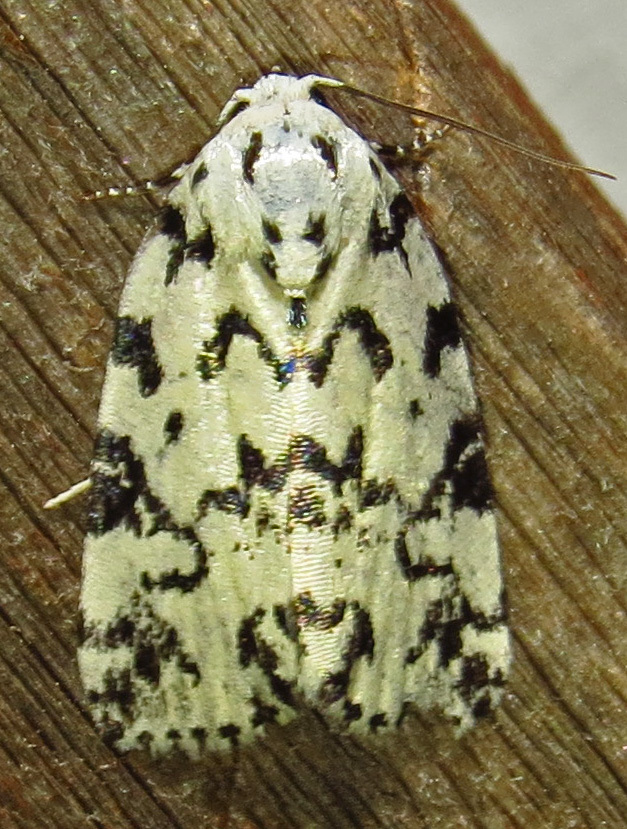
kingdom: Animalia
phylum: Arthropoda
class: Insecta
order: Lepidoptera
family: Noctuidae
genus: Polygrammate
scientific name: Polygrammate hebraeicum
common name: Hebrew moth
